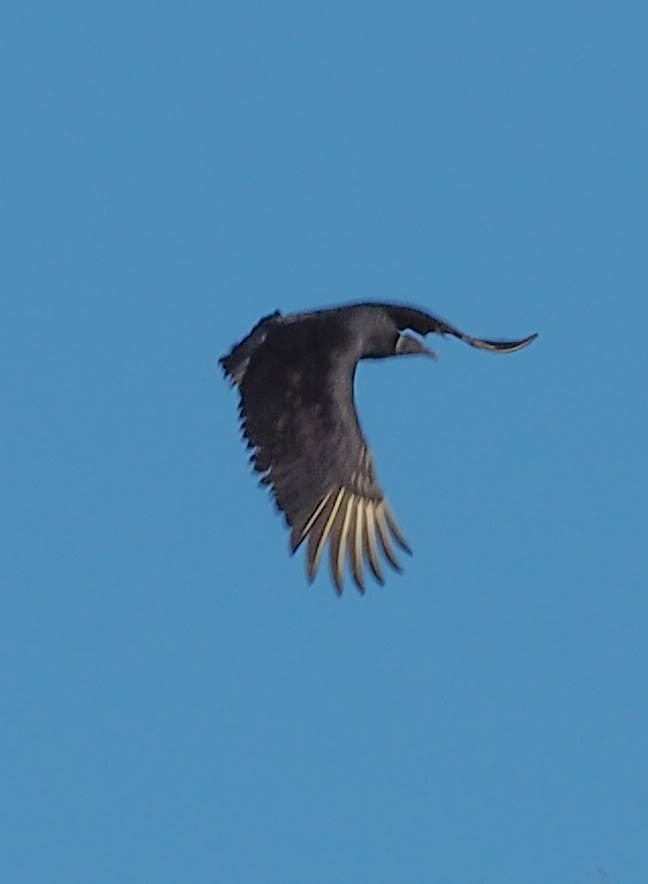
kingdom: Animalia
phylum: Chordata
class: Aves
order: Accipitriformes
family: Cathartidae
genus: Coragyps
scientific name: Coragyps atratus
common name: Black vulture
